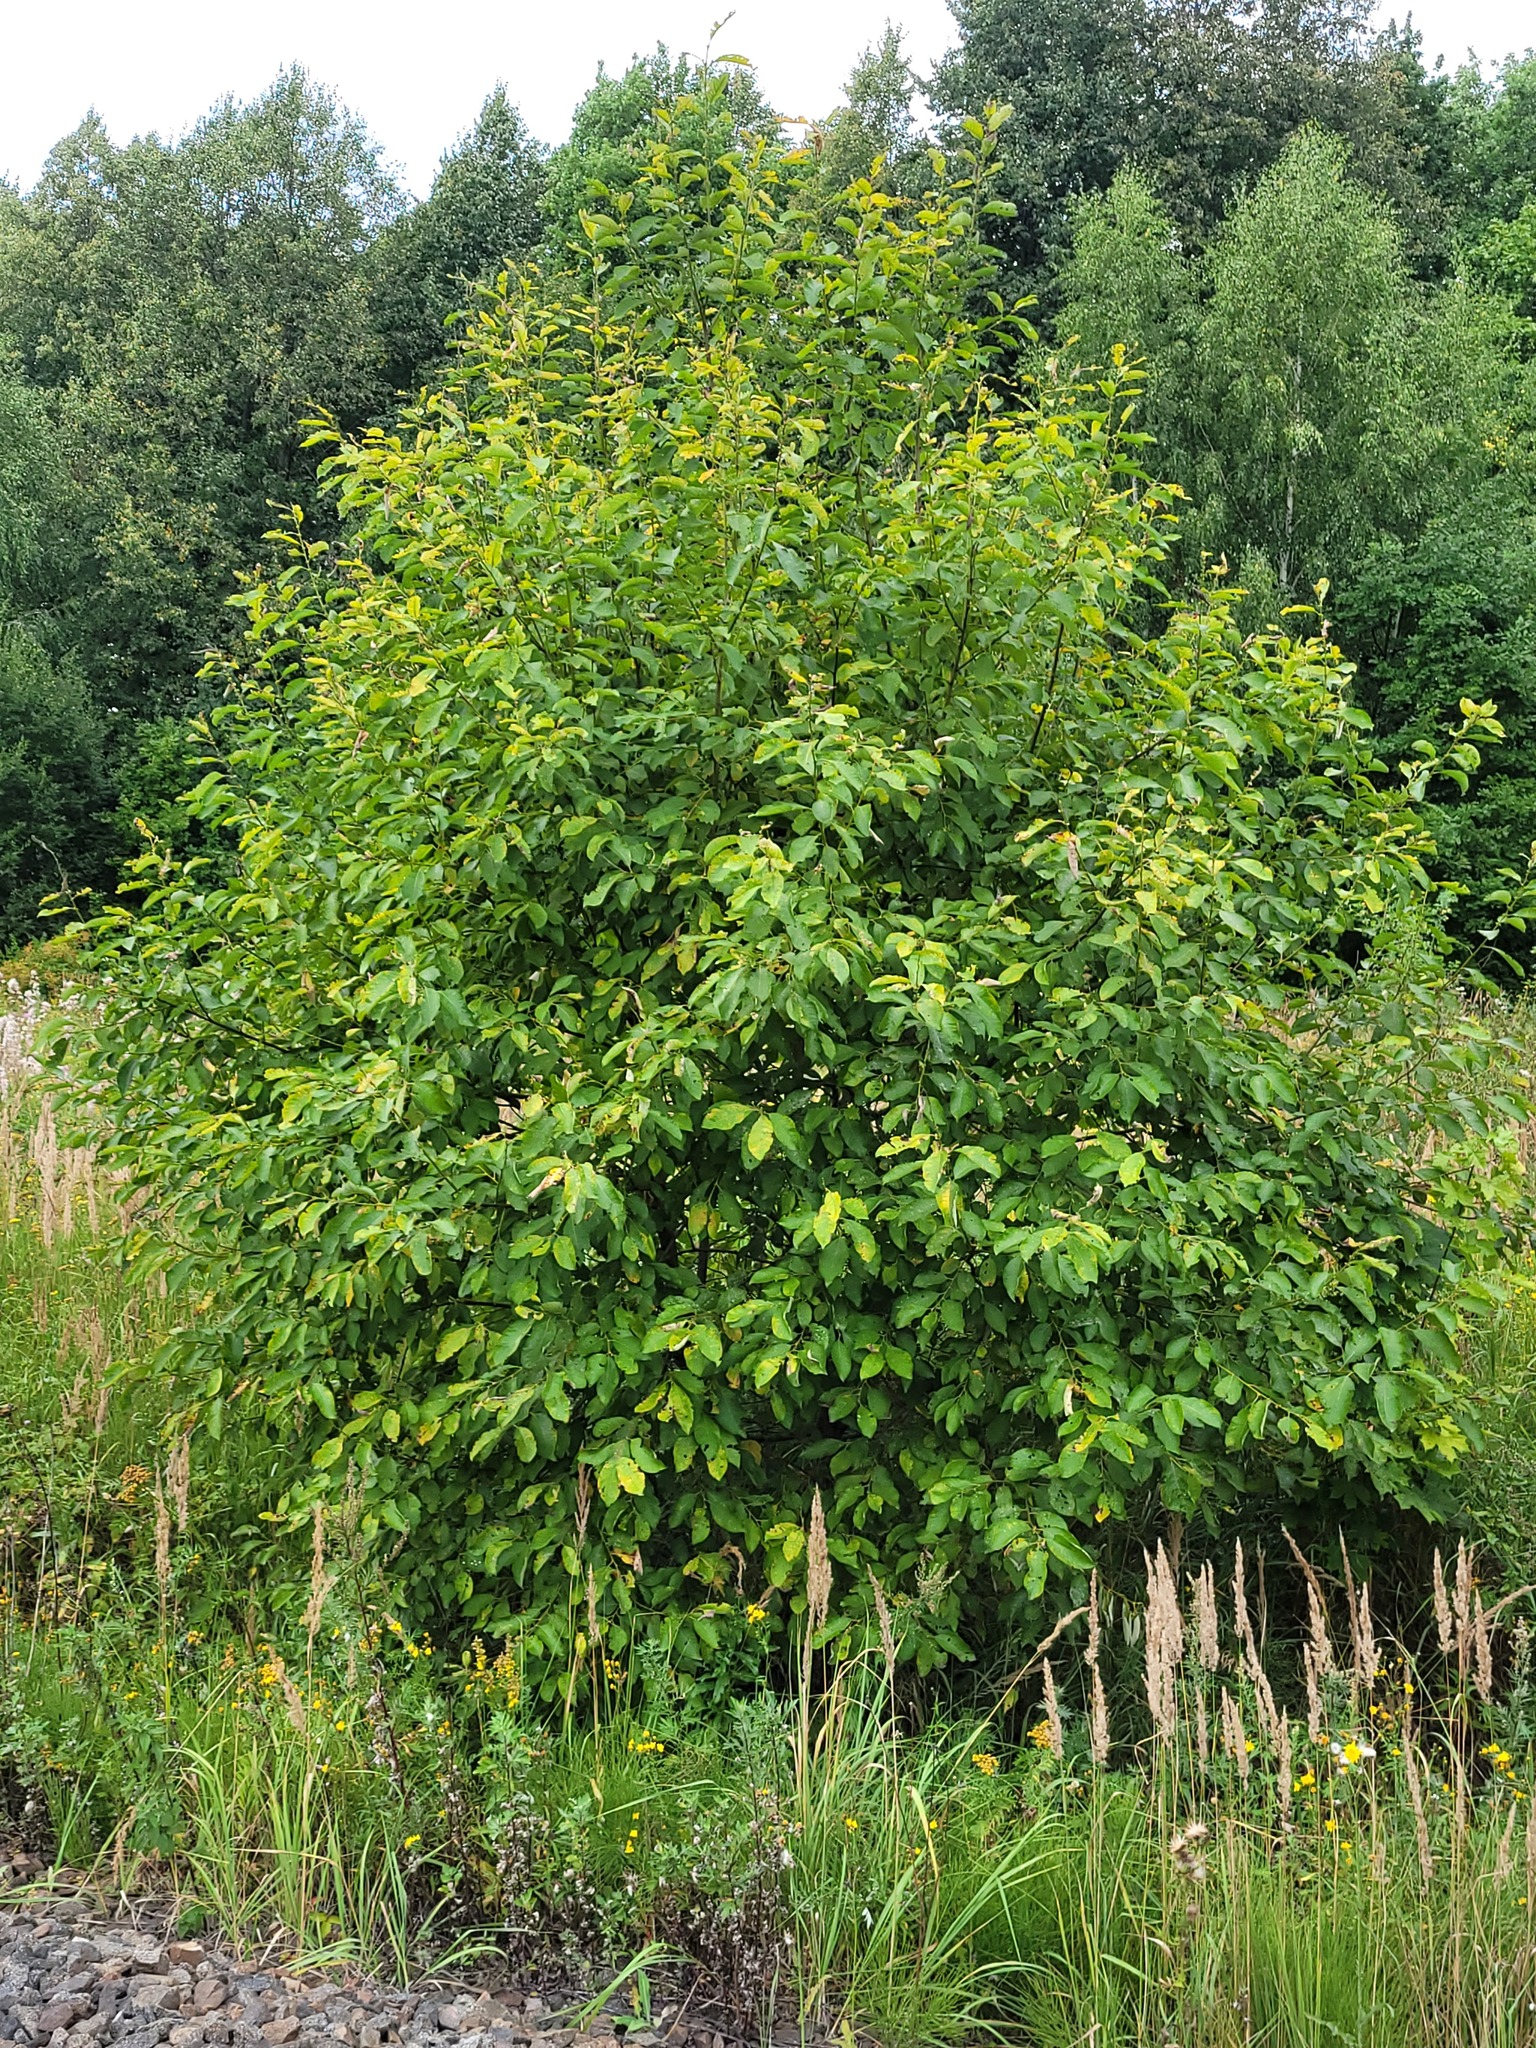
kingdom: Plantae
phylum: Tracheophyta
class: Magnoliopsida
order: Malpighiales
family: Salicaceae
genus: Salix
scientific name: Salix caprea
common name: Goat willow
